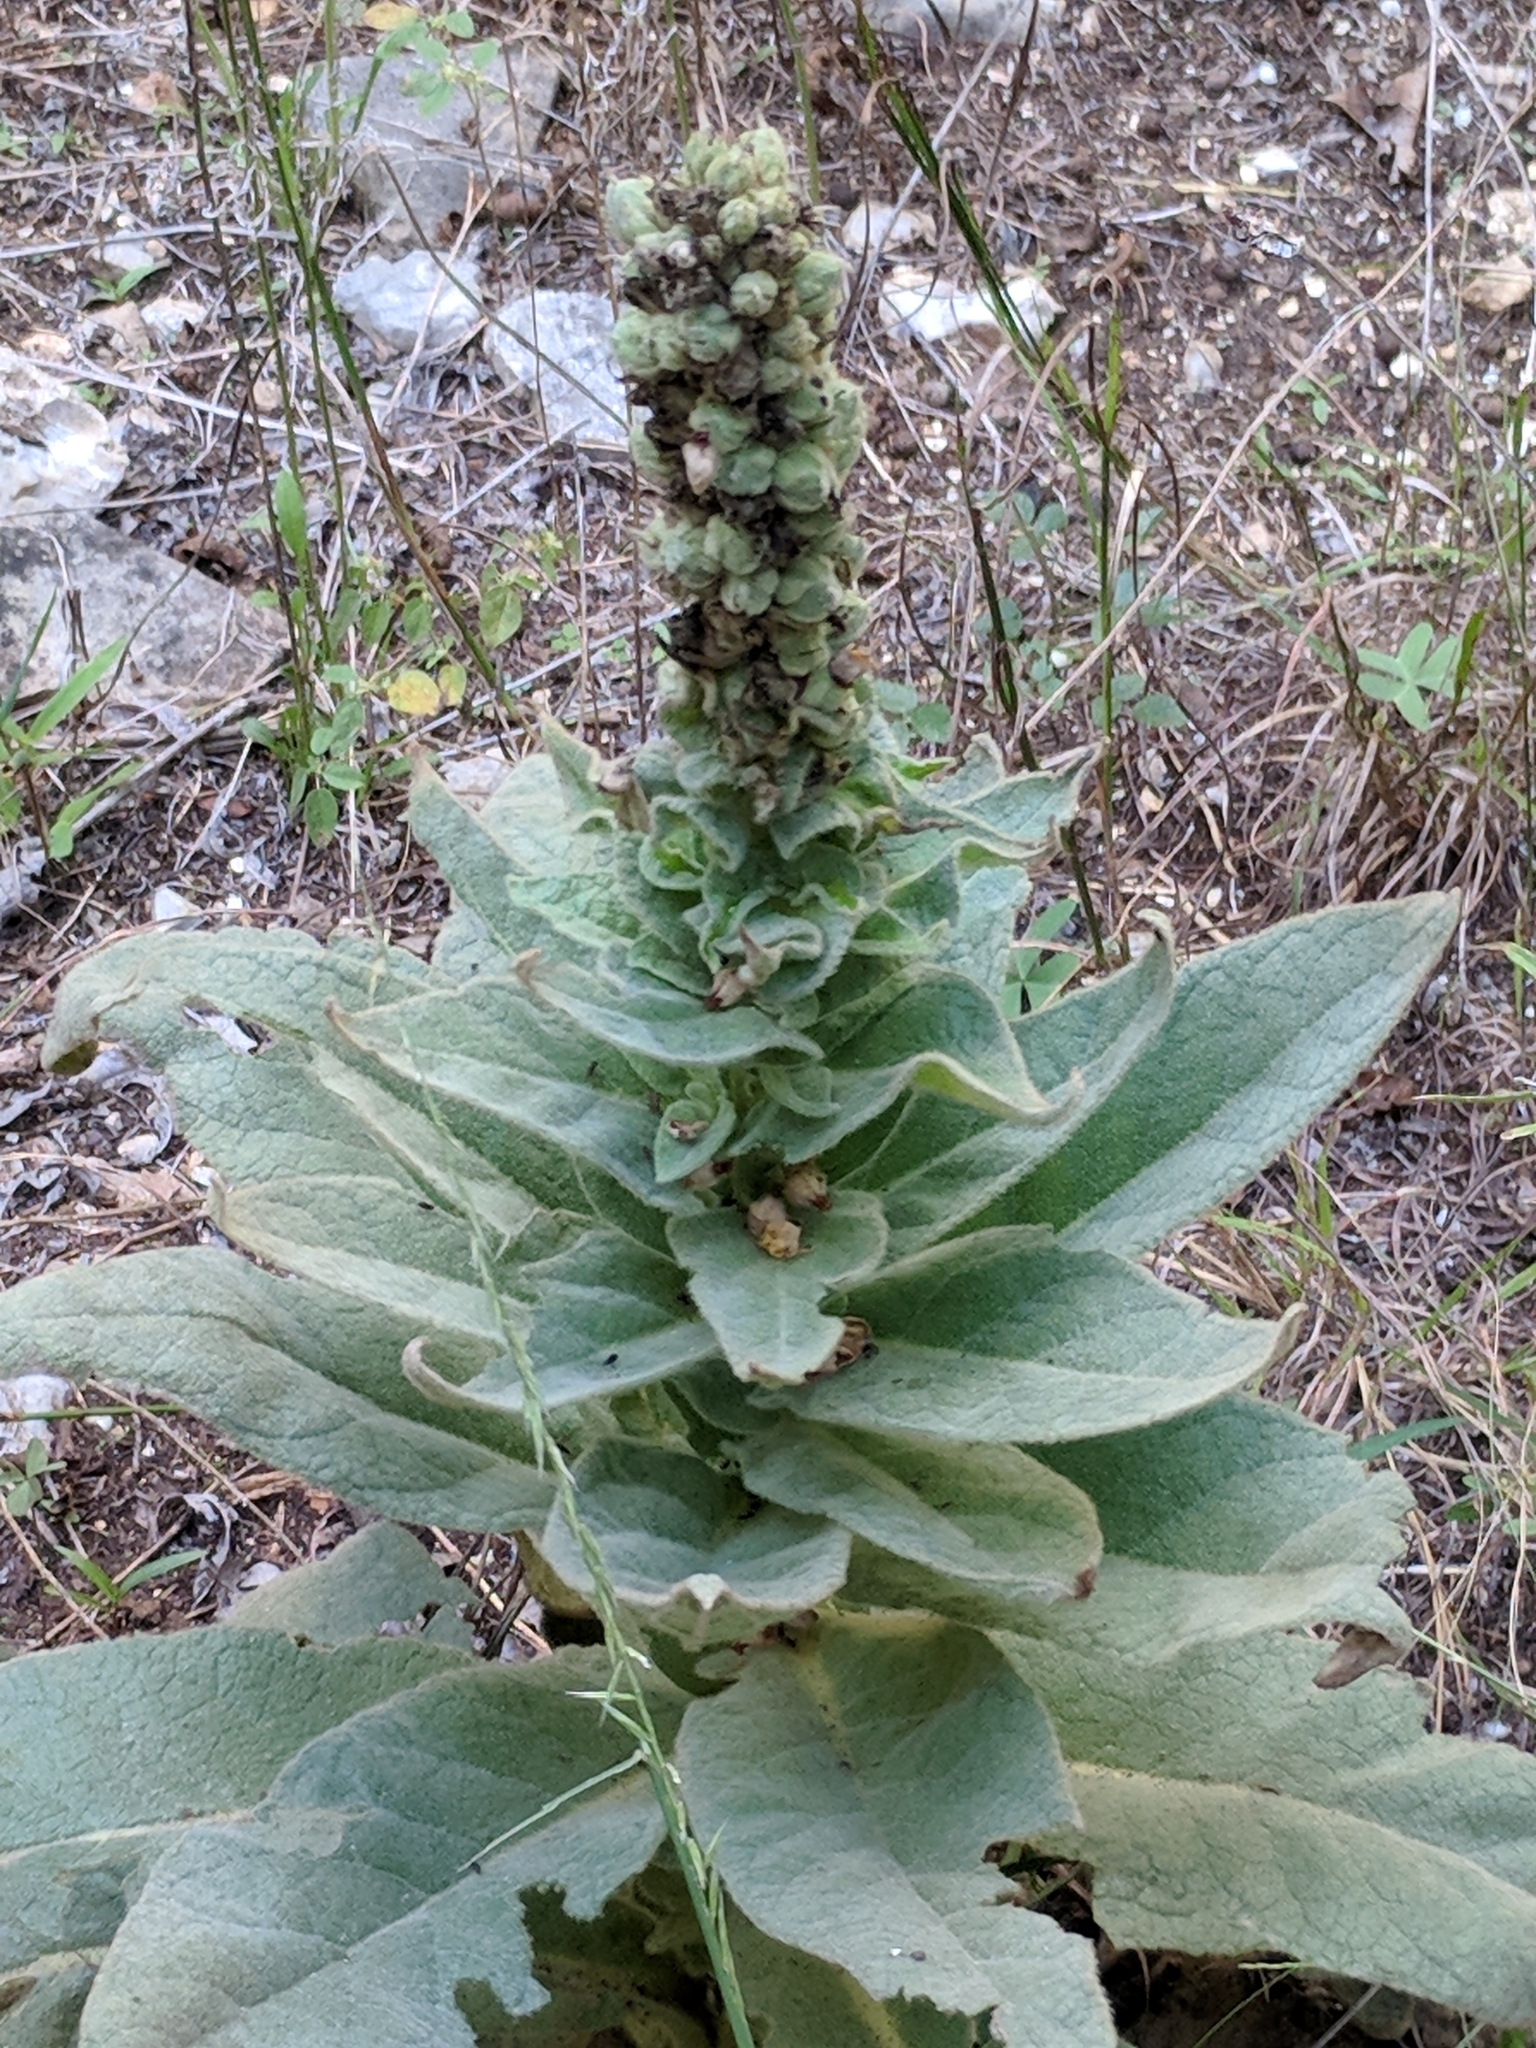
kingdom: Plantae
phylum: Tracheophyta
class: Magnoliopsida
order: Lamiales
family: Scrophulariaceae
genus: Verbascum
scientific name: Verbascum thapsus
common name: Common mullein
